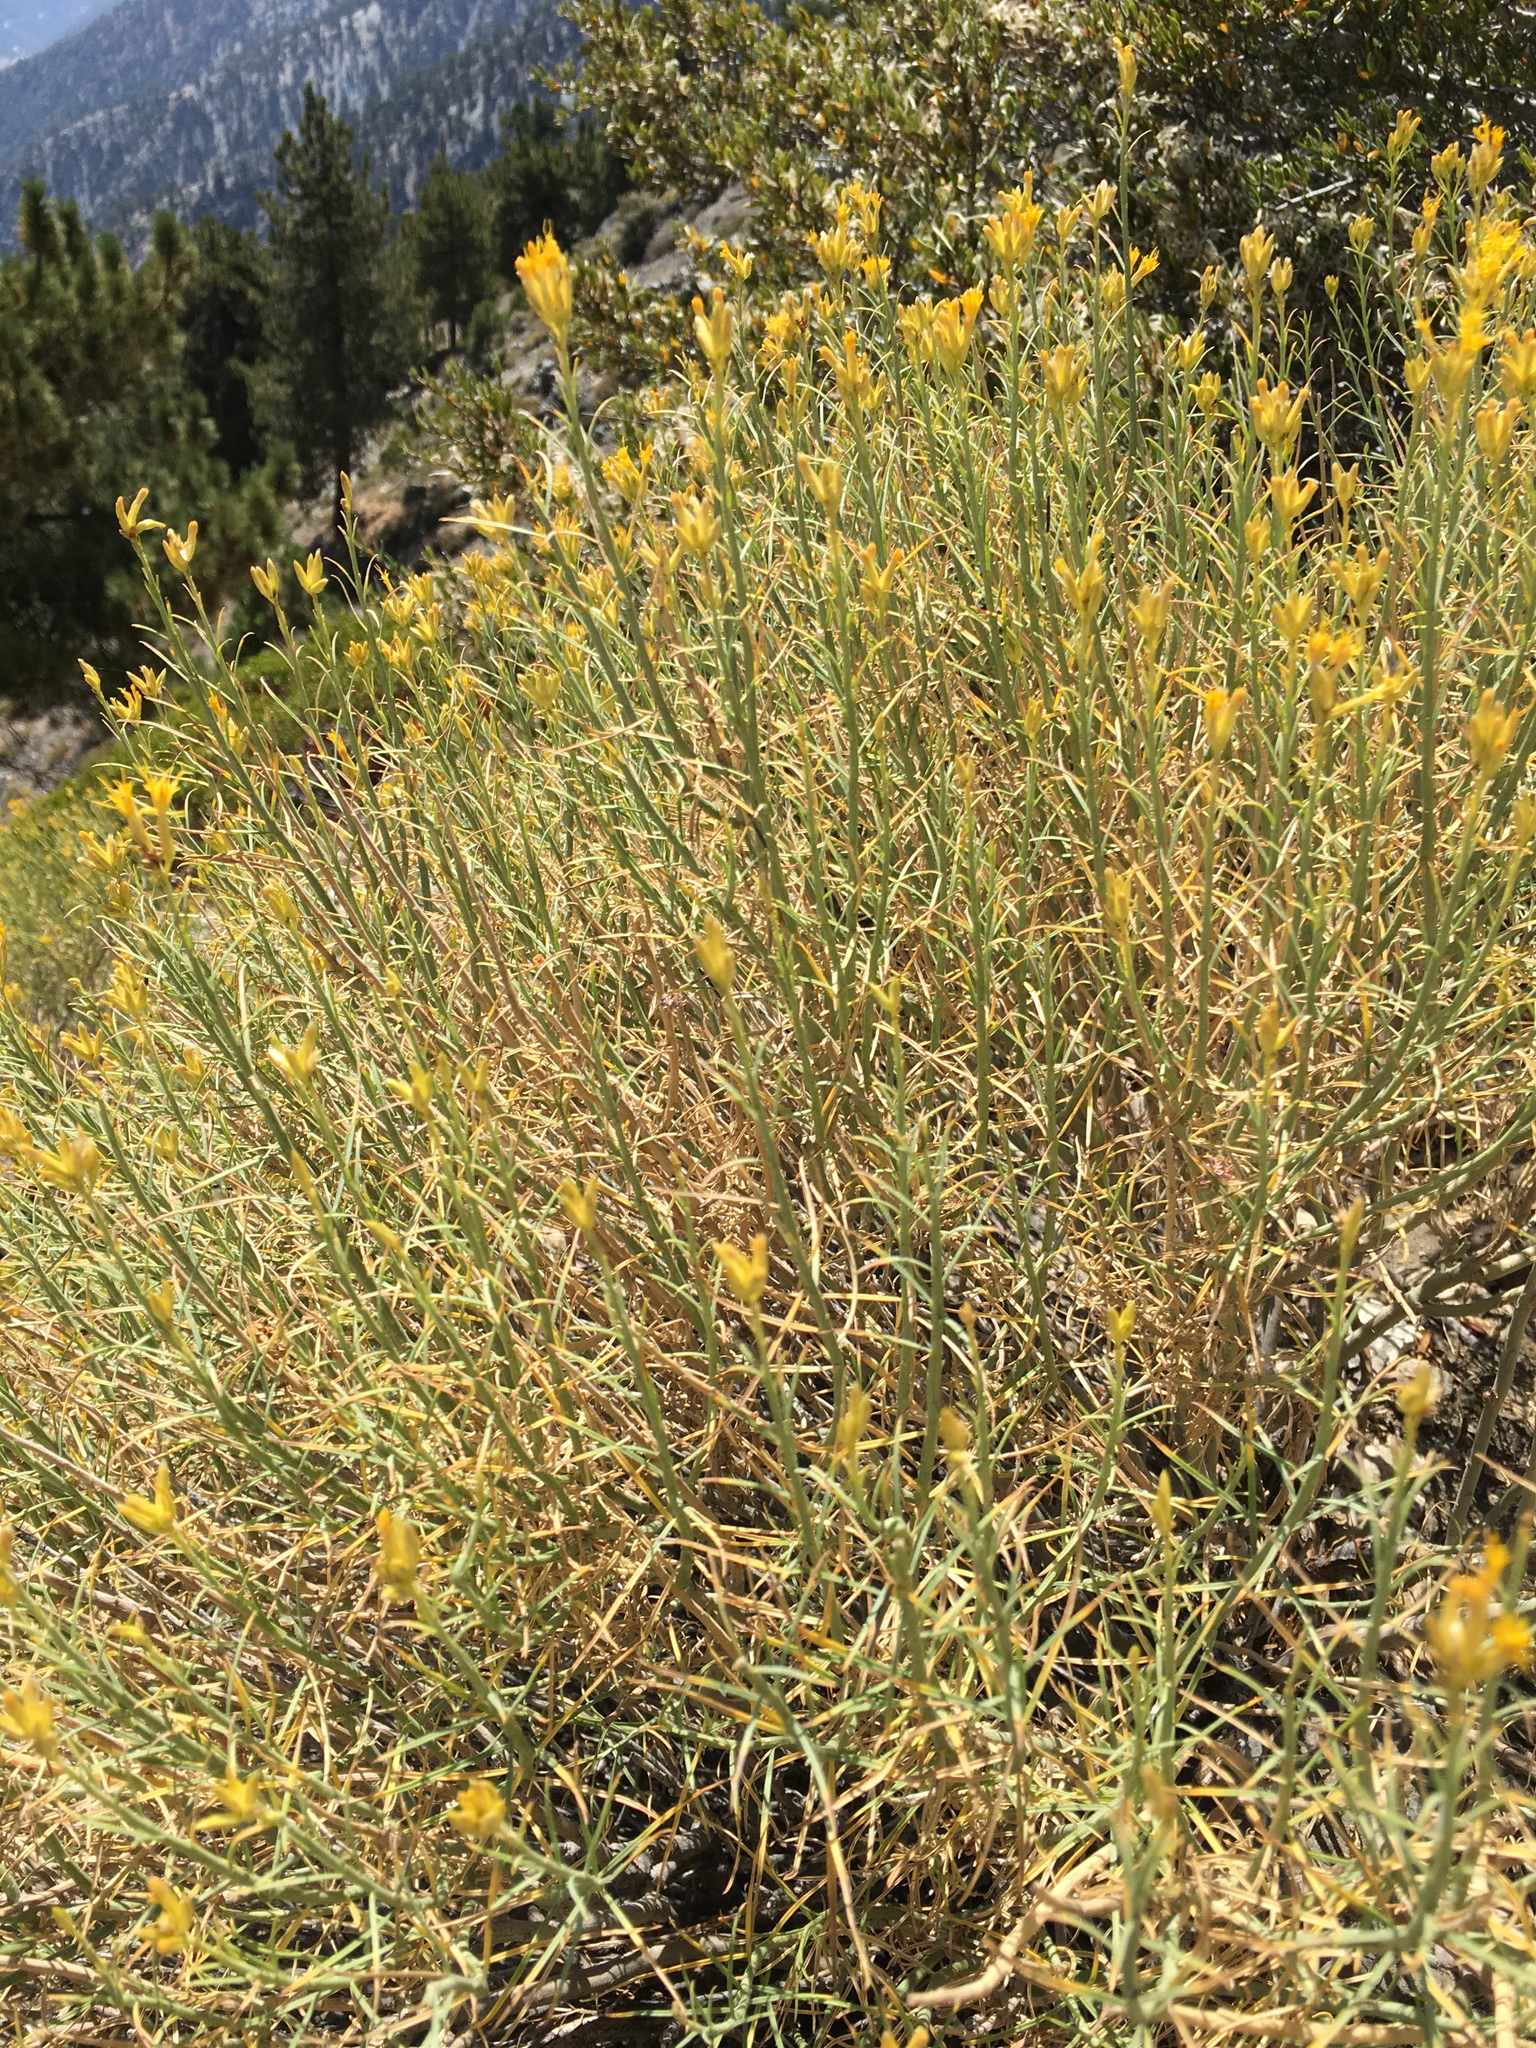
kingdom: Plantae
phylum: Tracheophyta
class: Magnoliopsida
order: Asterales
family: Asteraceae
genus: Ericameria
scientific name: Ericameria nauseosa
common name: Rubber rabbitbrush
